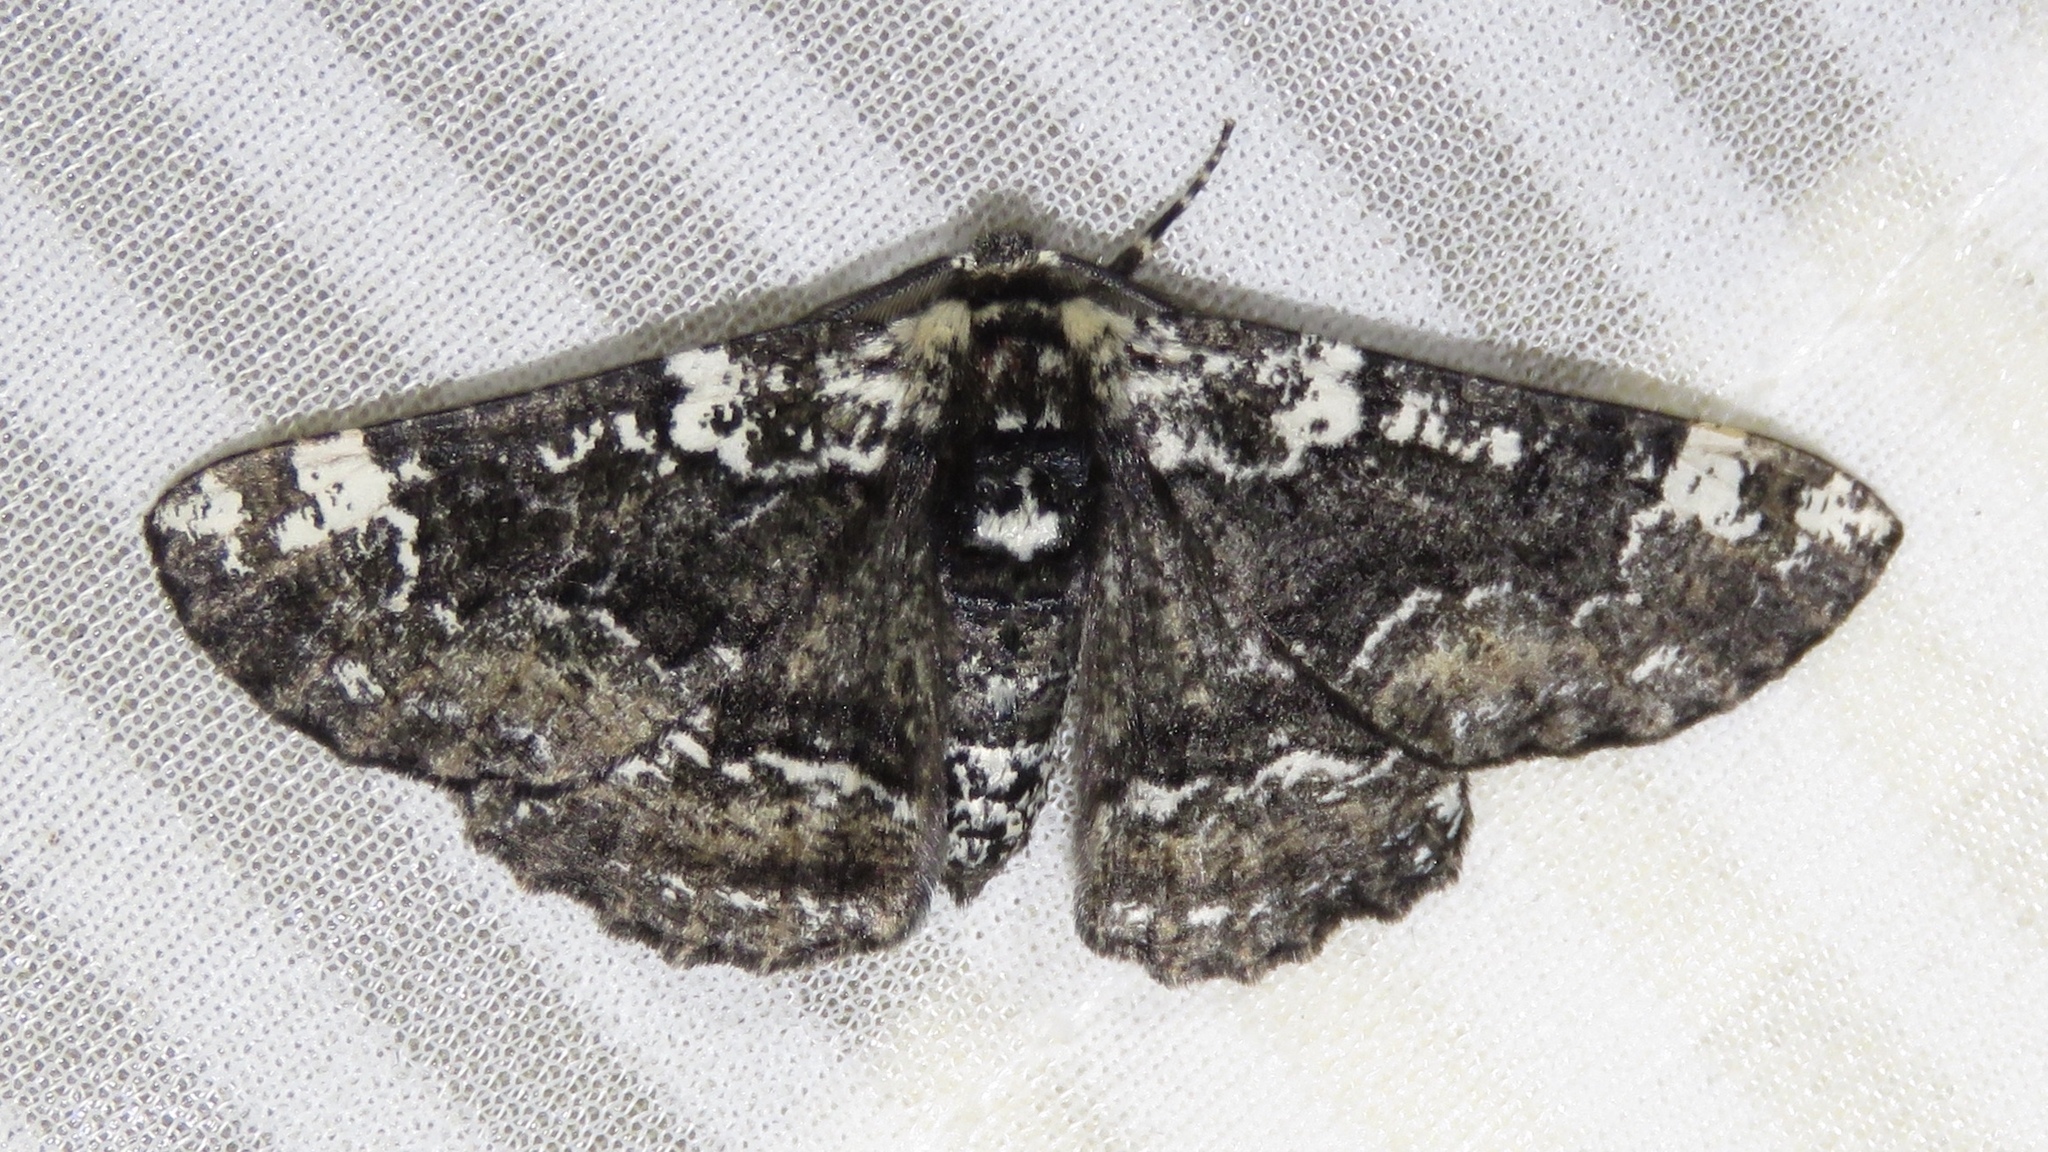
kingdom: Animalia
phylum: Arthropoda
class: Insecta
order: Lepidoptera
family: Geometridae
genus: Phaeoura
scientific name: Phaeoura quernaria
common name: Oak beauty
